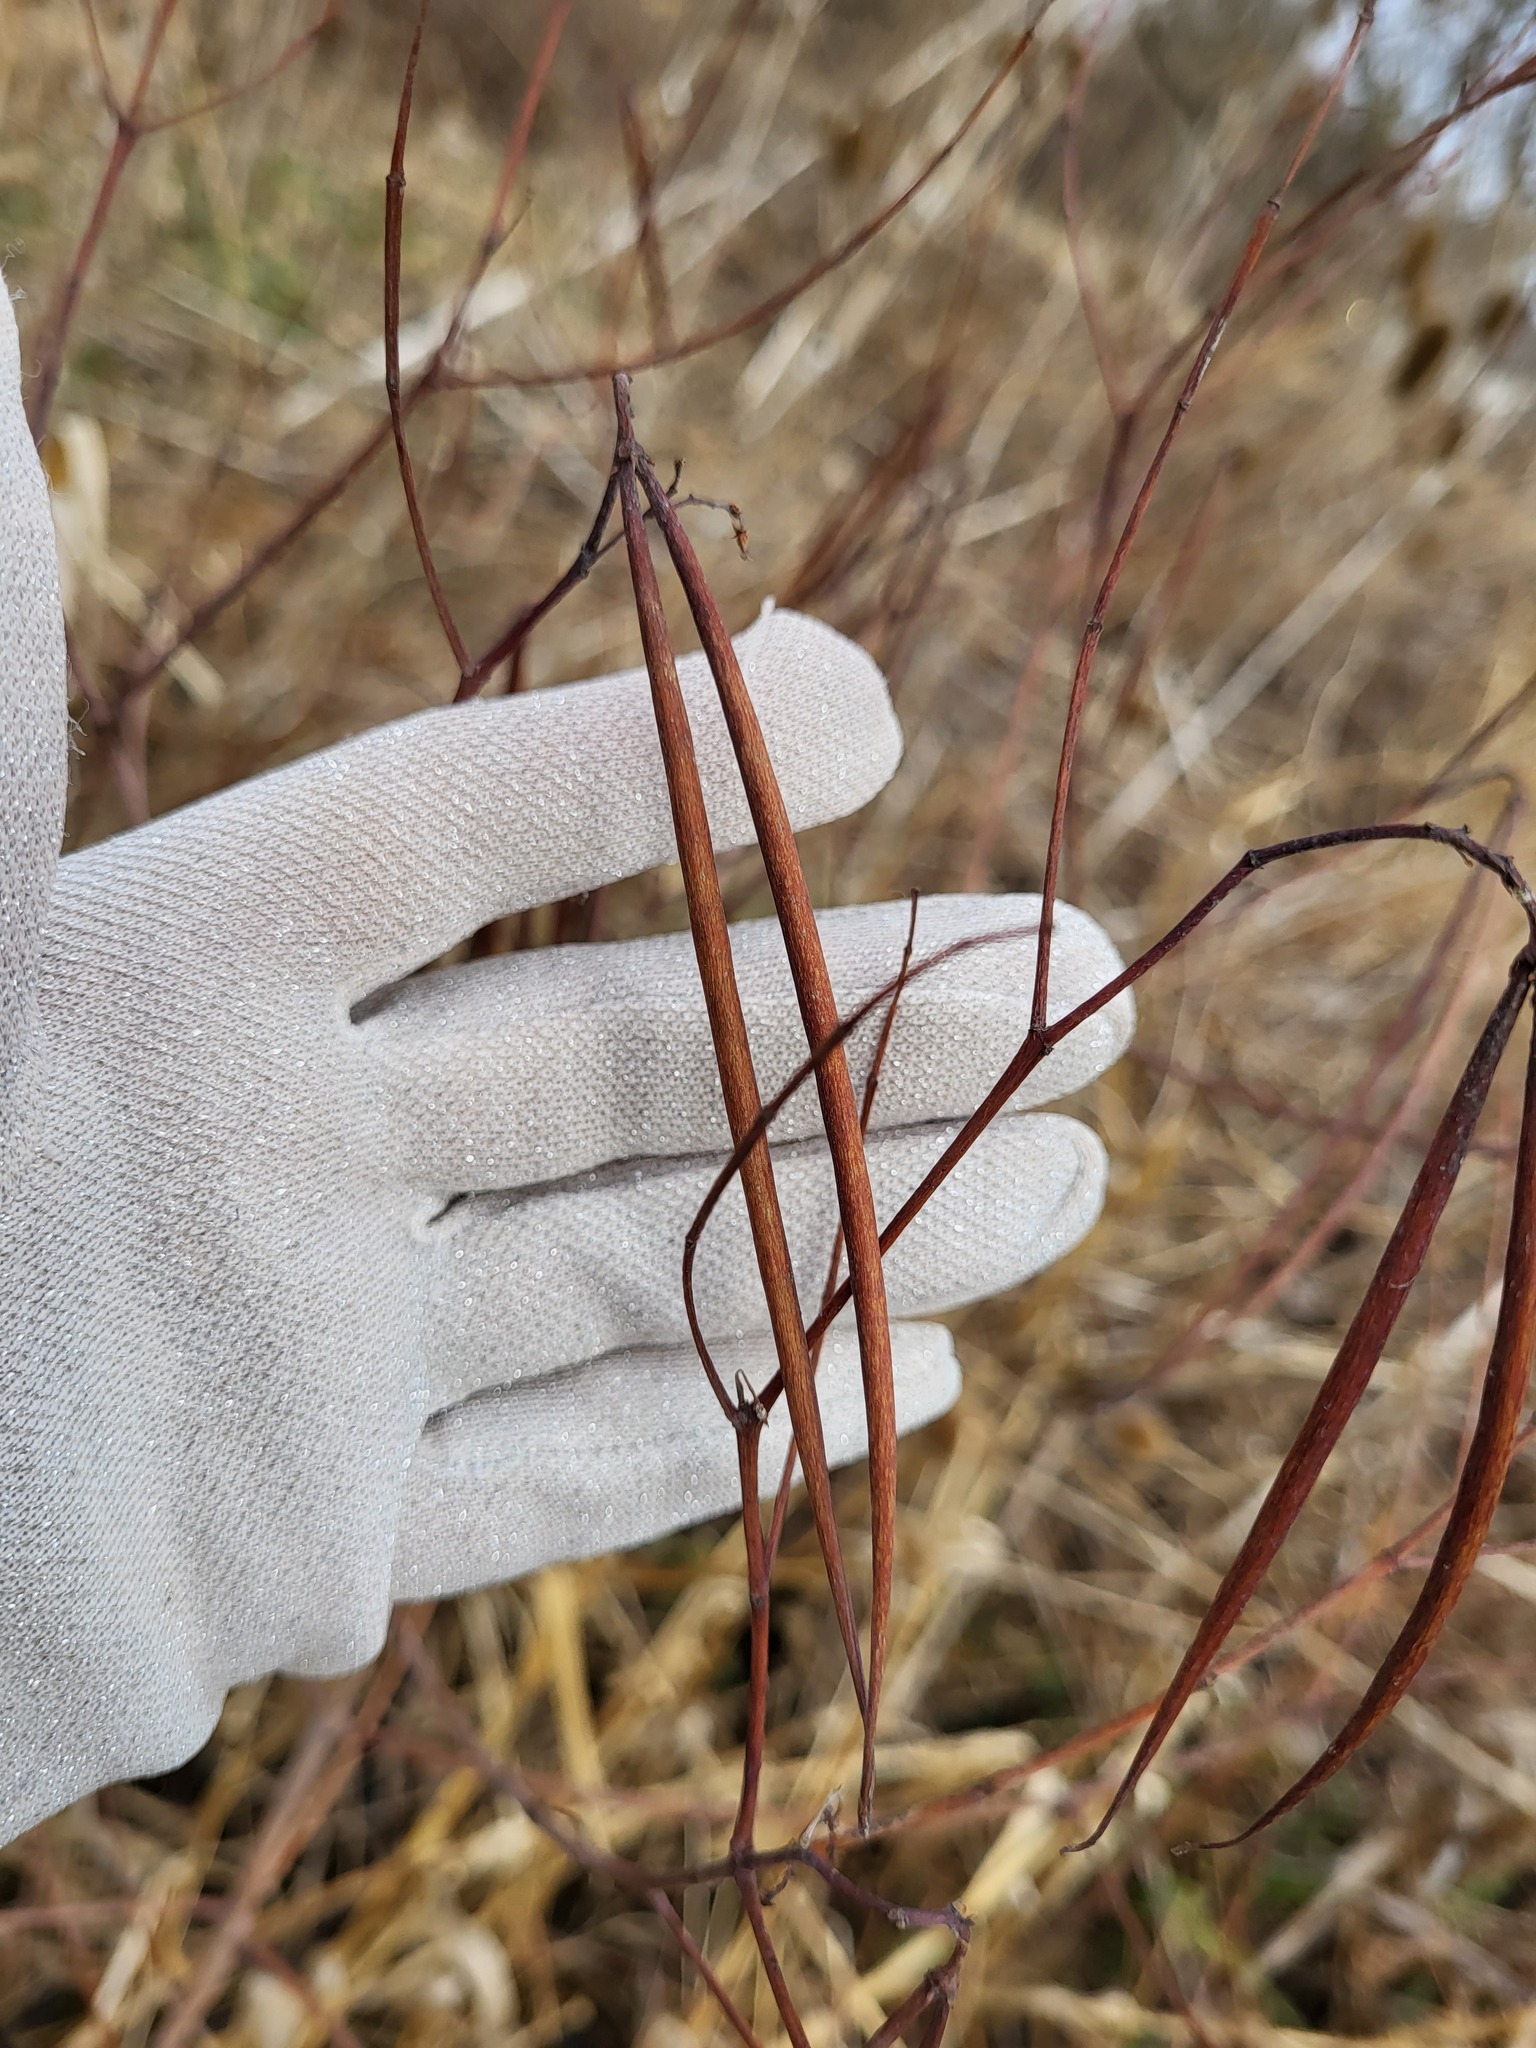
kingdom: Plantae
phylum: Tracheophyta
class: Magnoliopsida
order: Gentianales
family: Apocynaceae
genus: Apocynum
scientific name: Apocynum cannabinum
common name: Hemp dogbane
